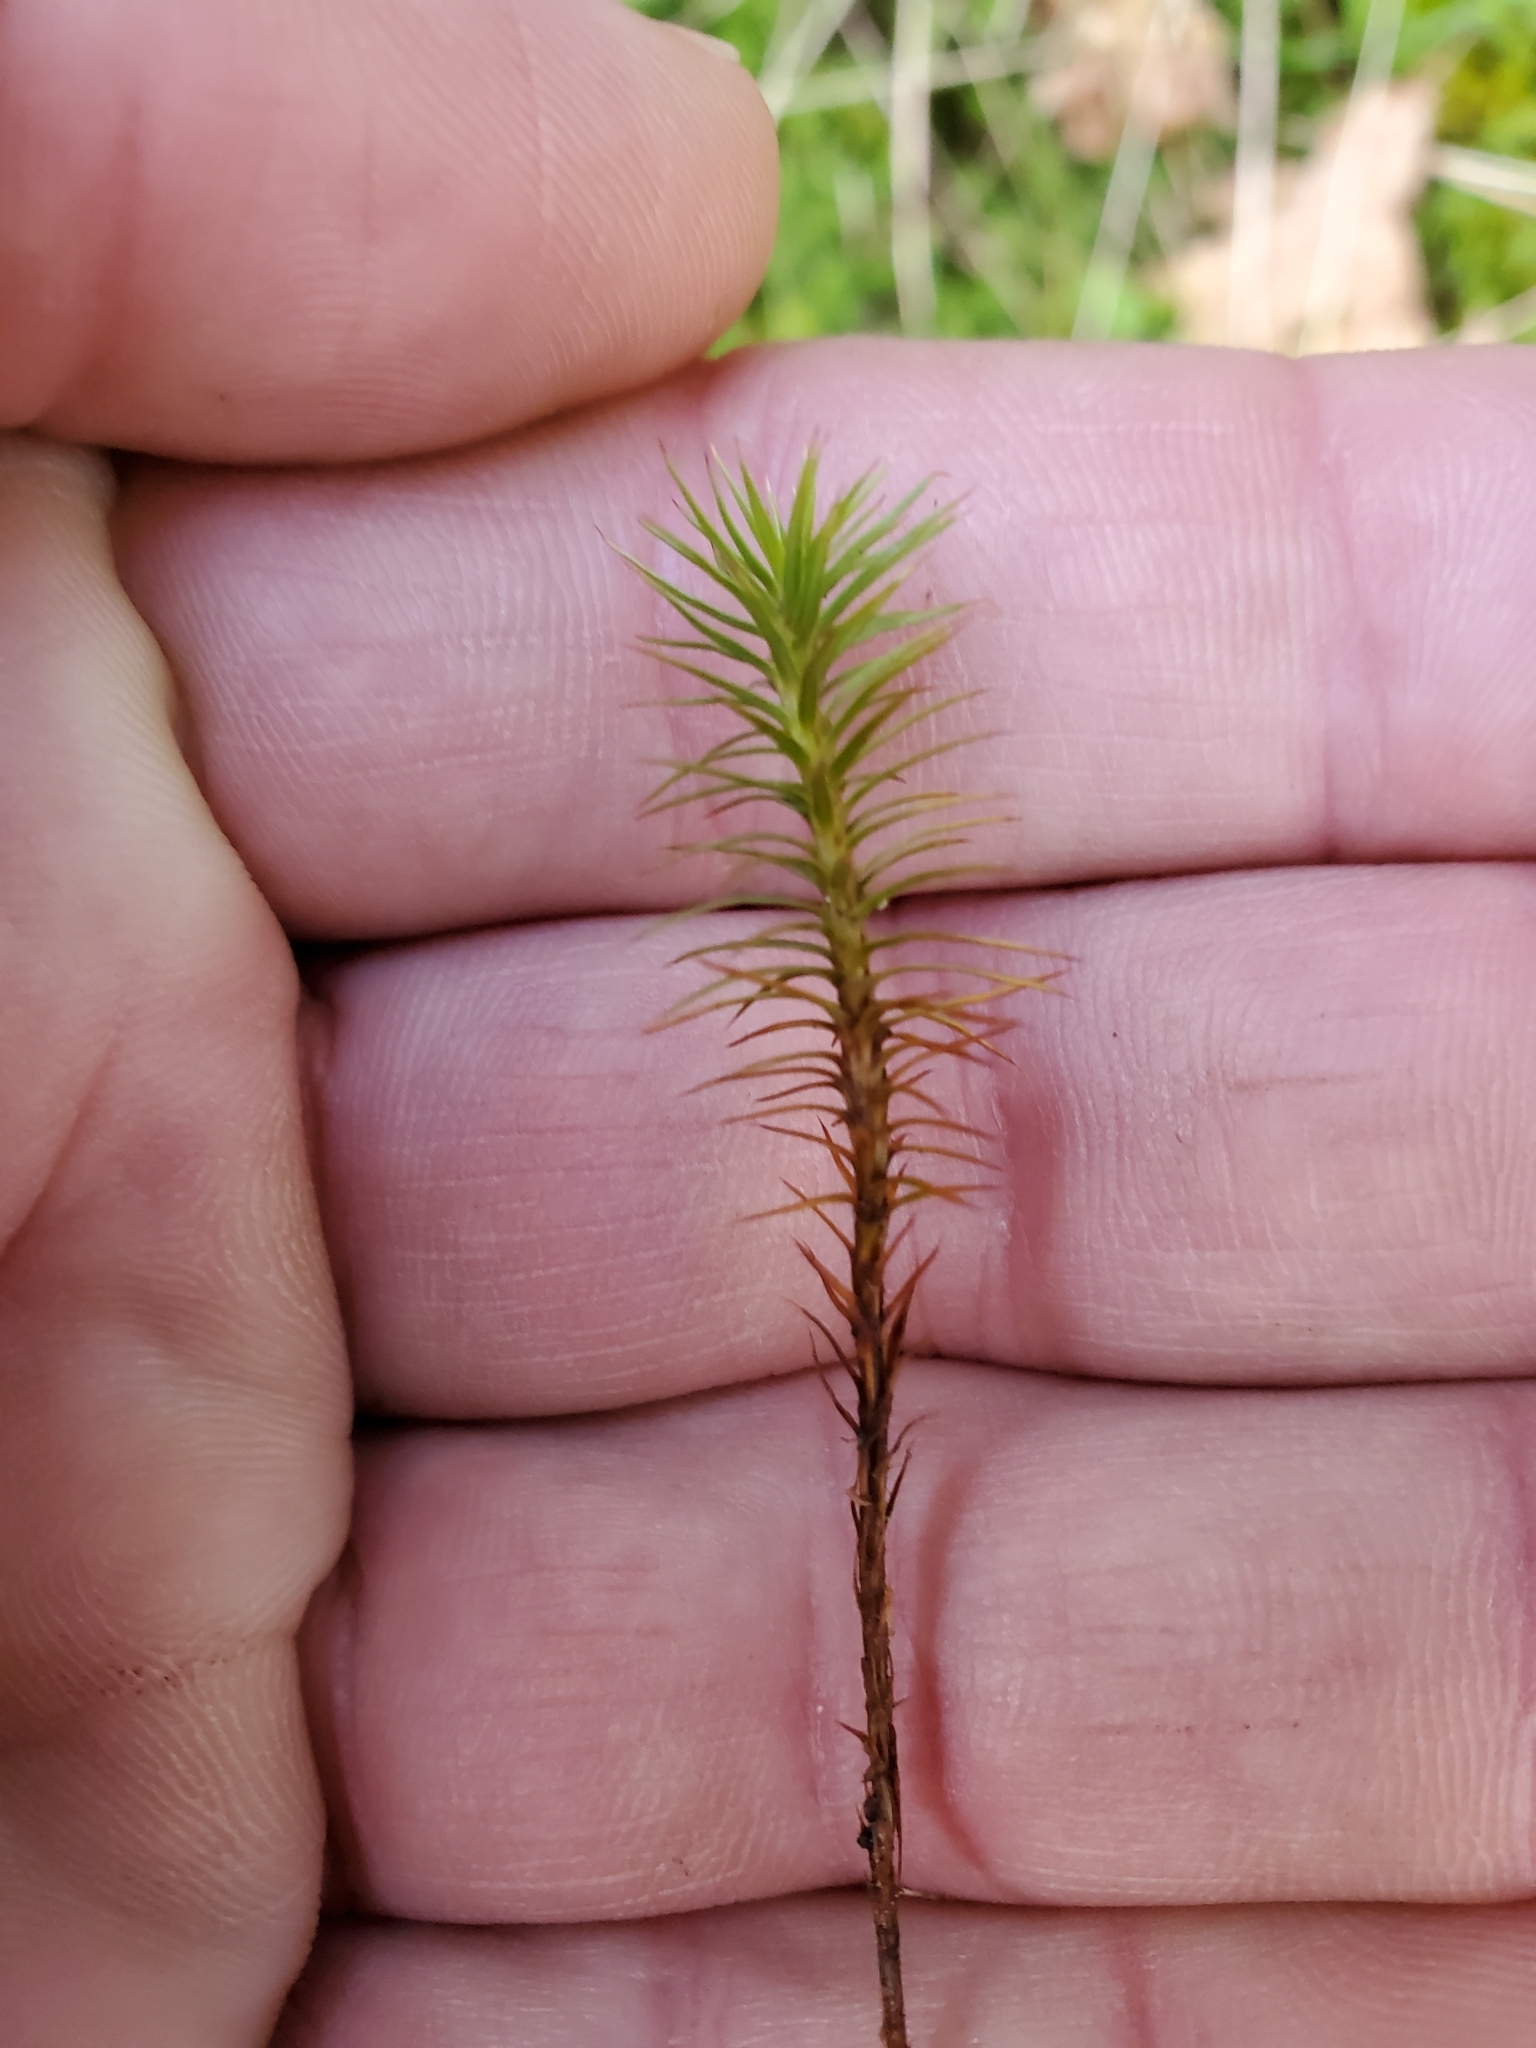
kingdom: Plantae
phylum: Bryophyta
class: Polytrichopsida
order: Polytrichales
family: Polytrichaceae
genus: Polytrichum
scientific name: Polytrichum juniperinum
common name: Juniper haircap moss
